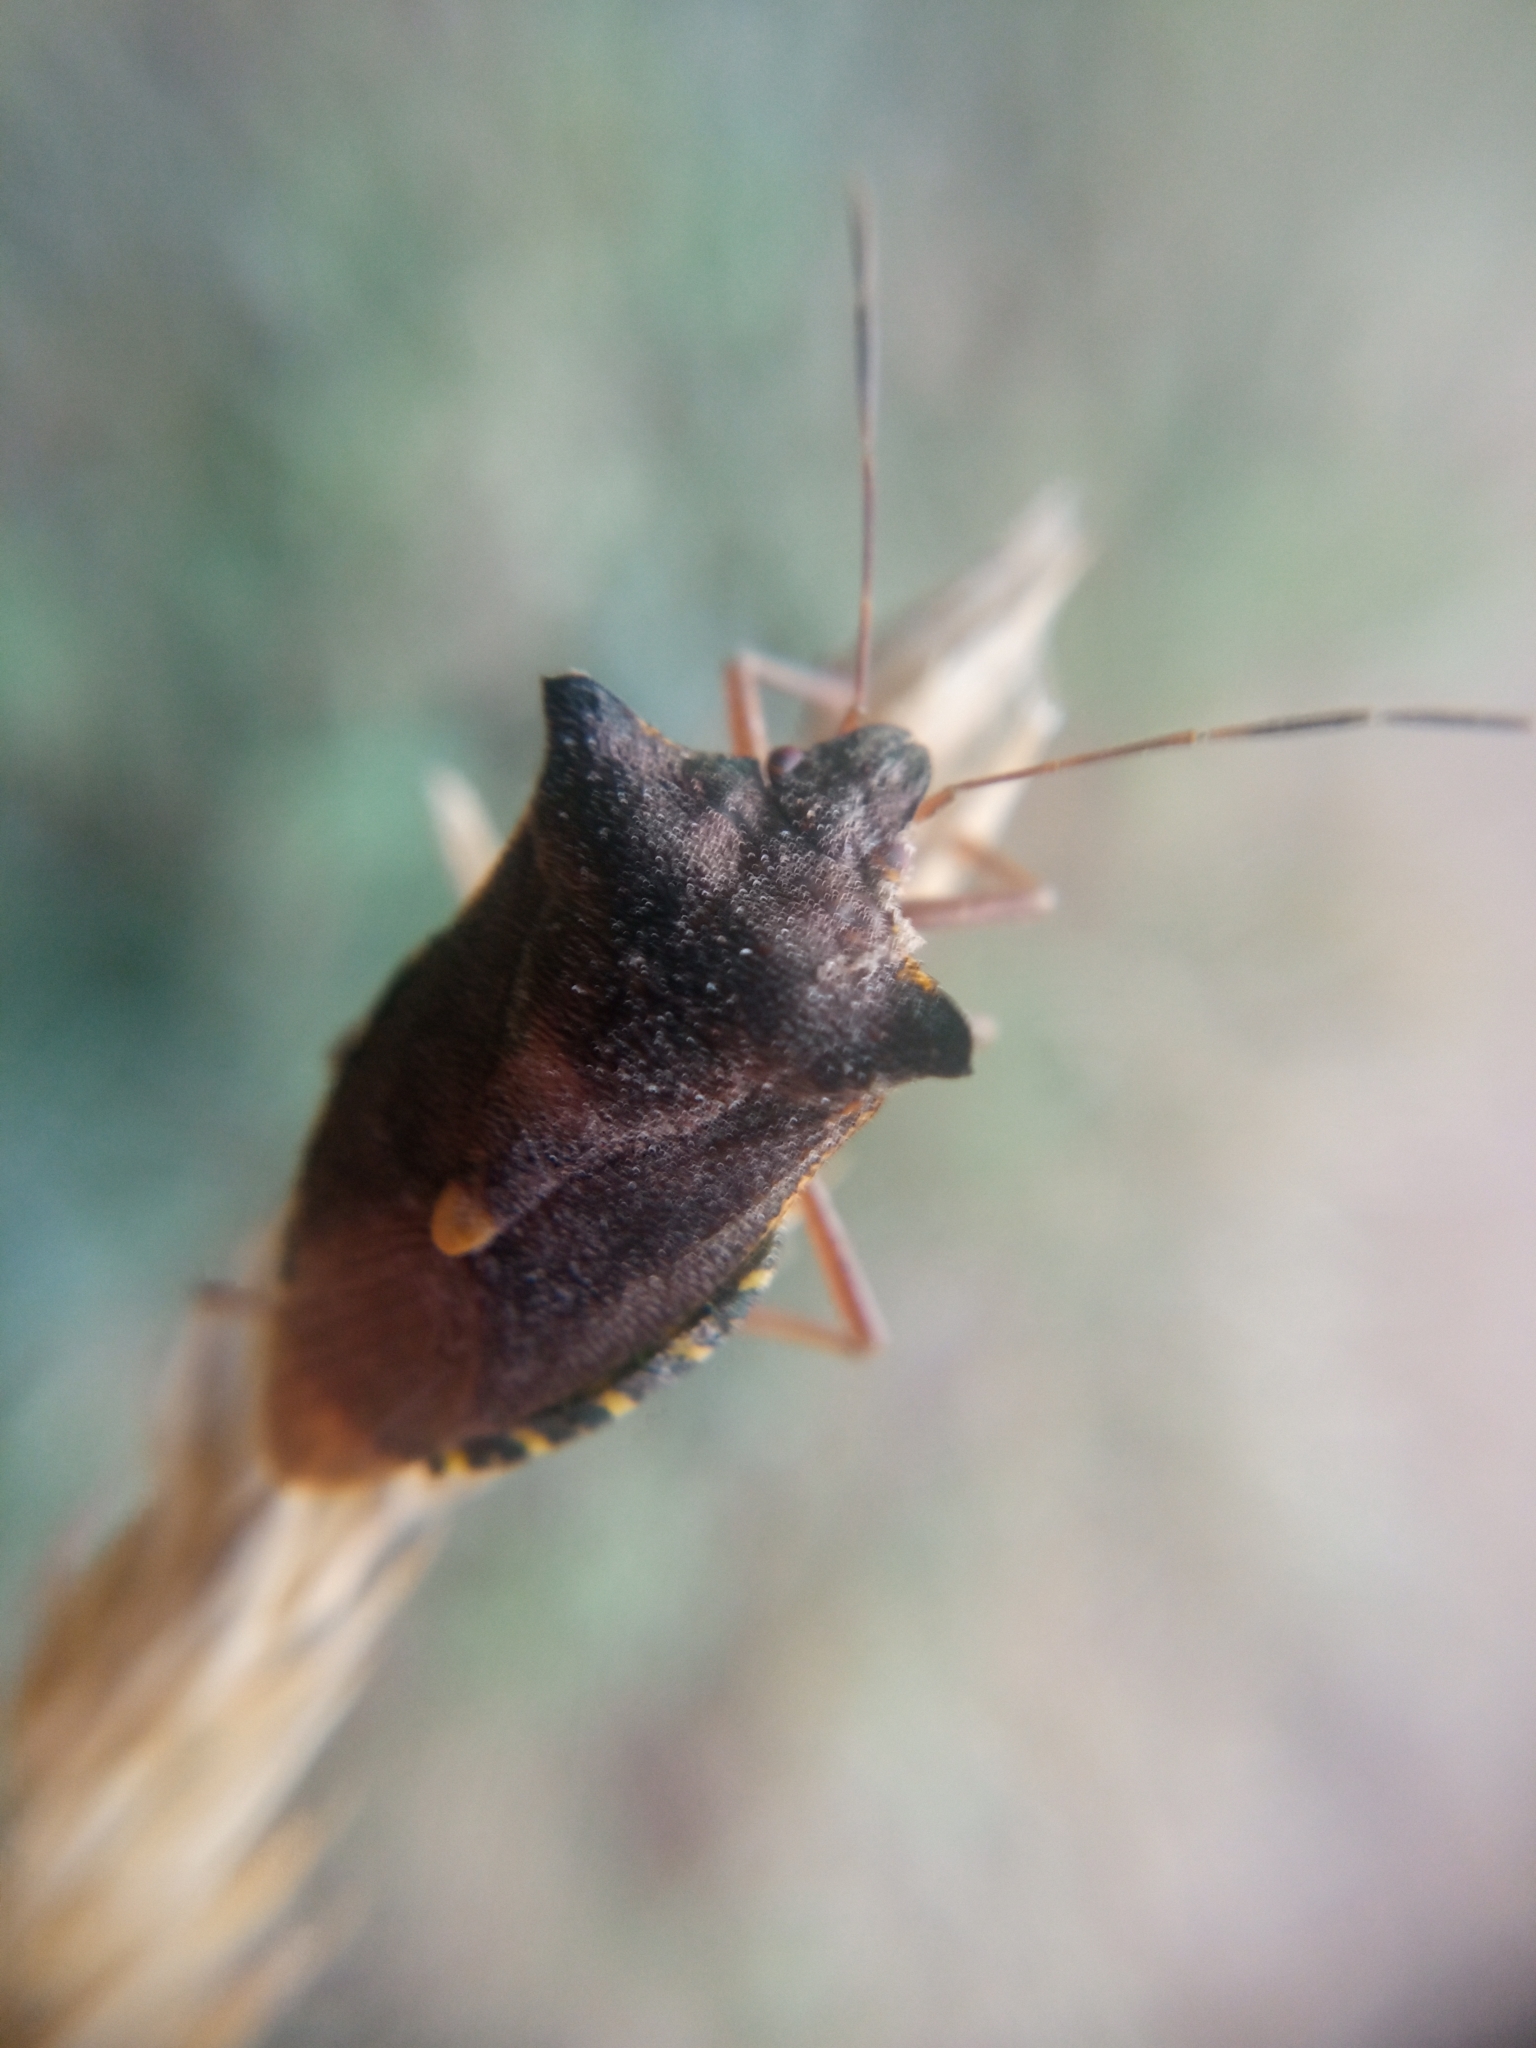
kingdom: Animalia
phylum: Arthropoda
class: Insecta
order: Hemiptera
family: Pentatomidae
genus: Pentatoma
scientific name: Pentatoma rufipes
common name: Forest bug
